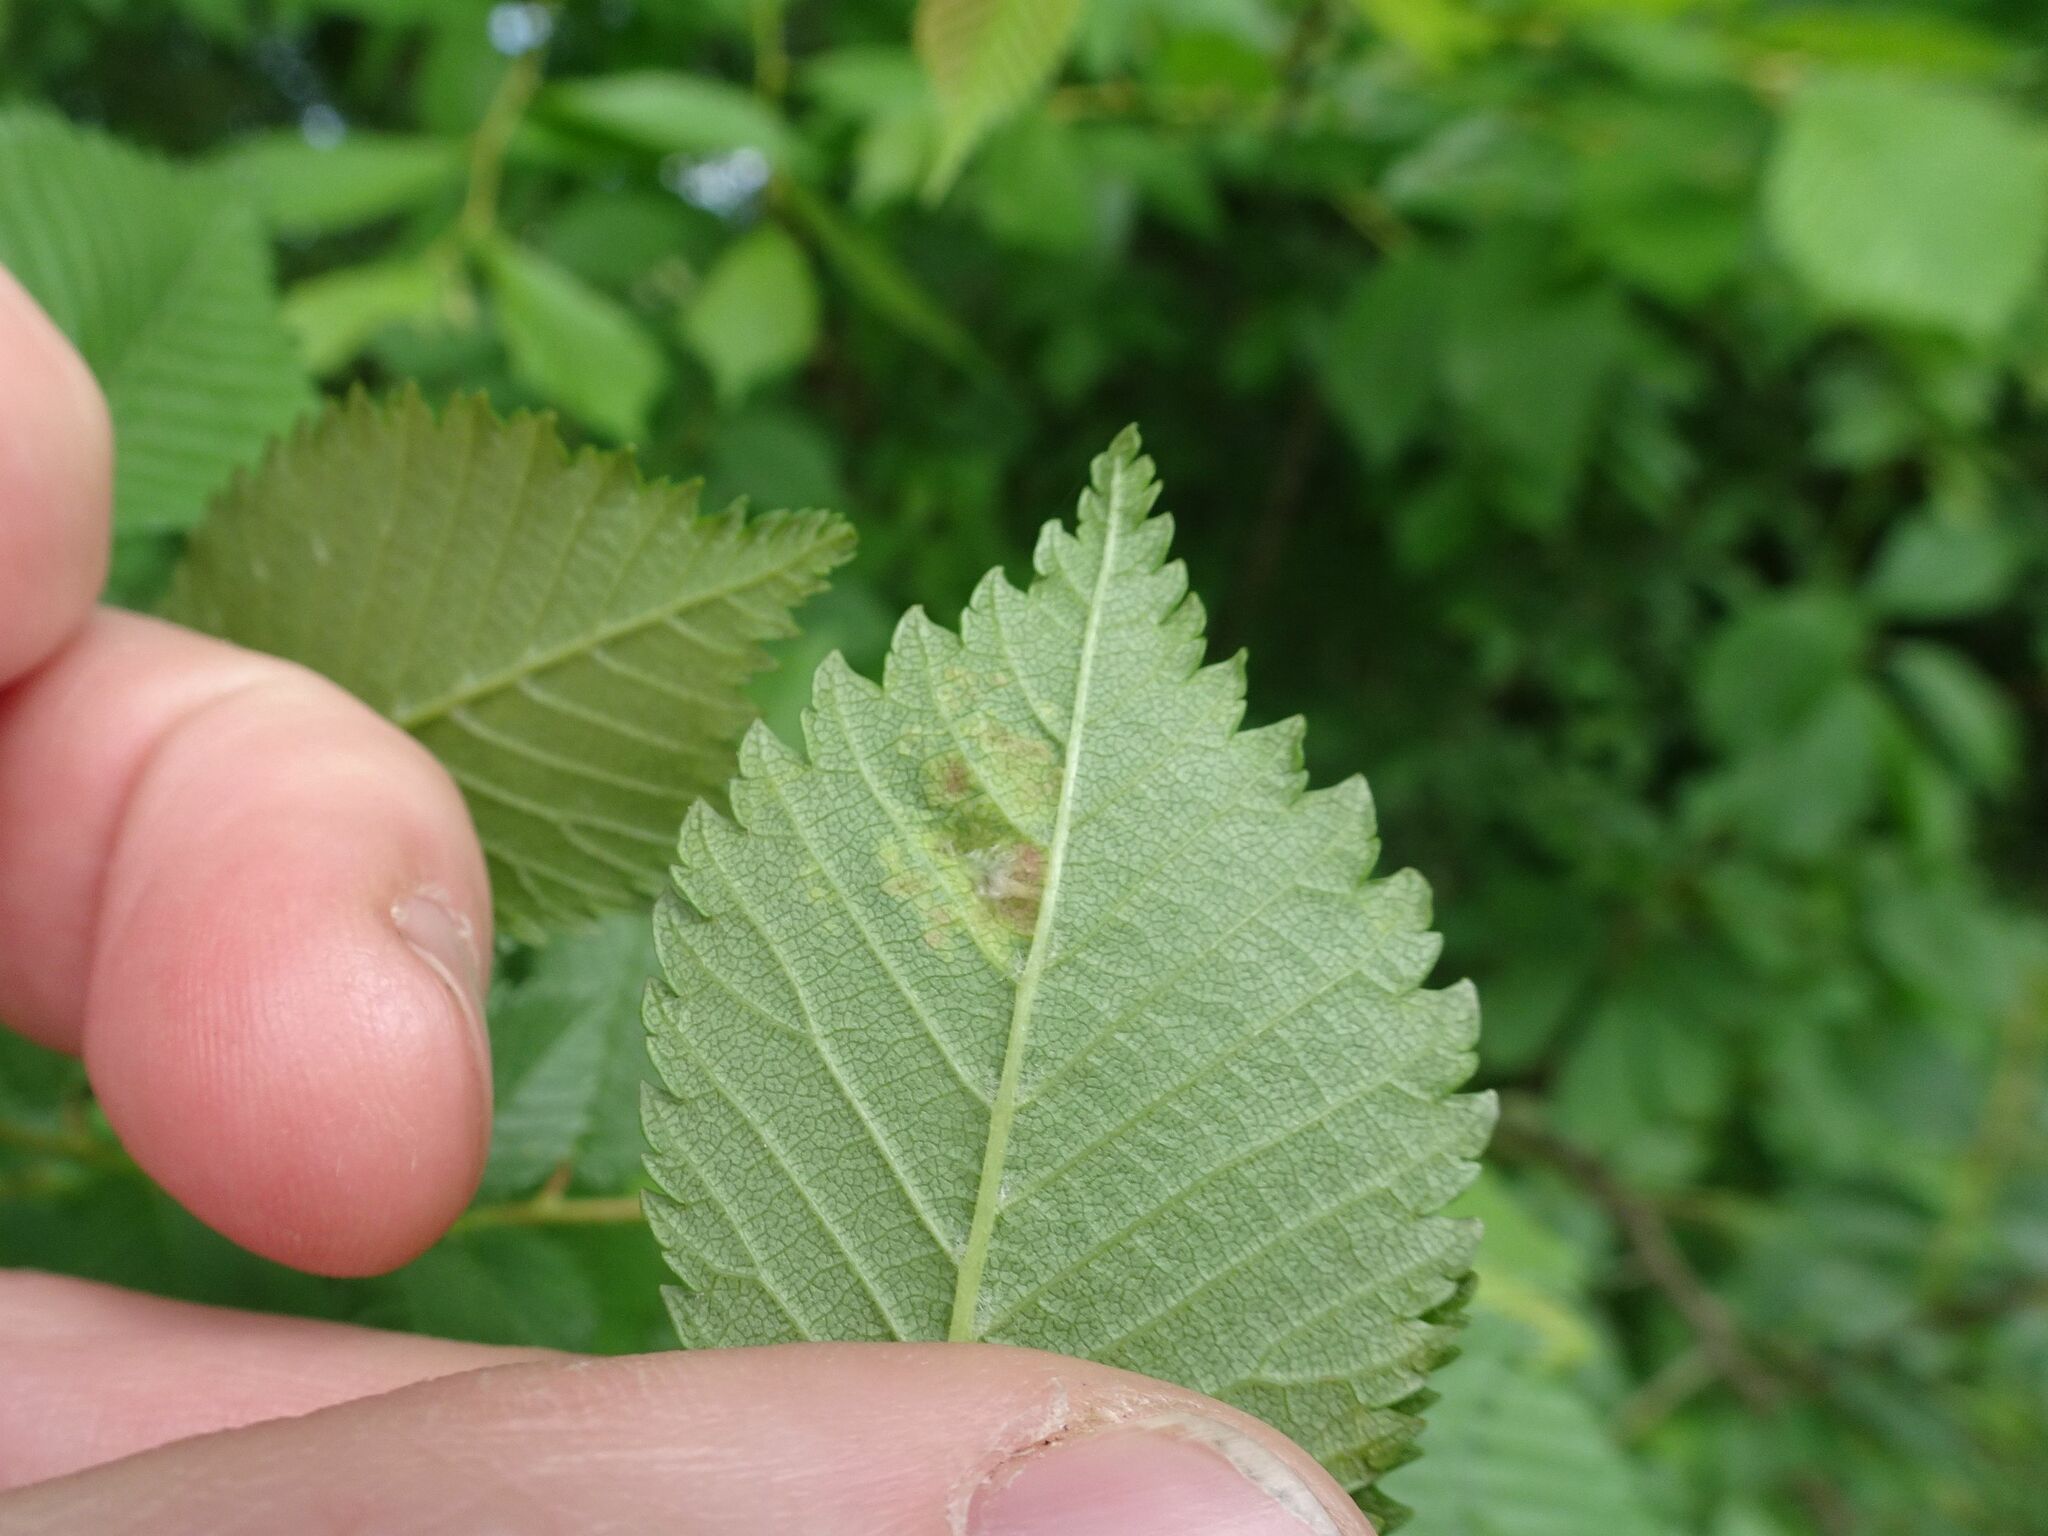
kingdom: Animalia
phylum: Arthropoda
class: Insecta
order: Hemiptera
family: Aphididae
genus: Tetraneura
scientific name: Tetraneura nigriabdominalis
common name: Aphid
